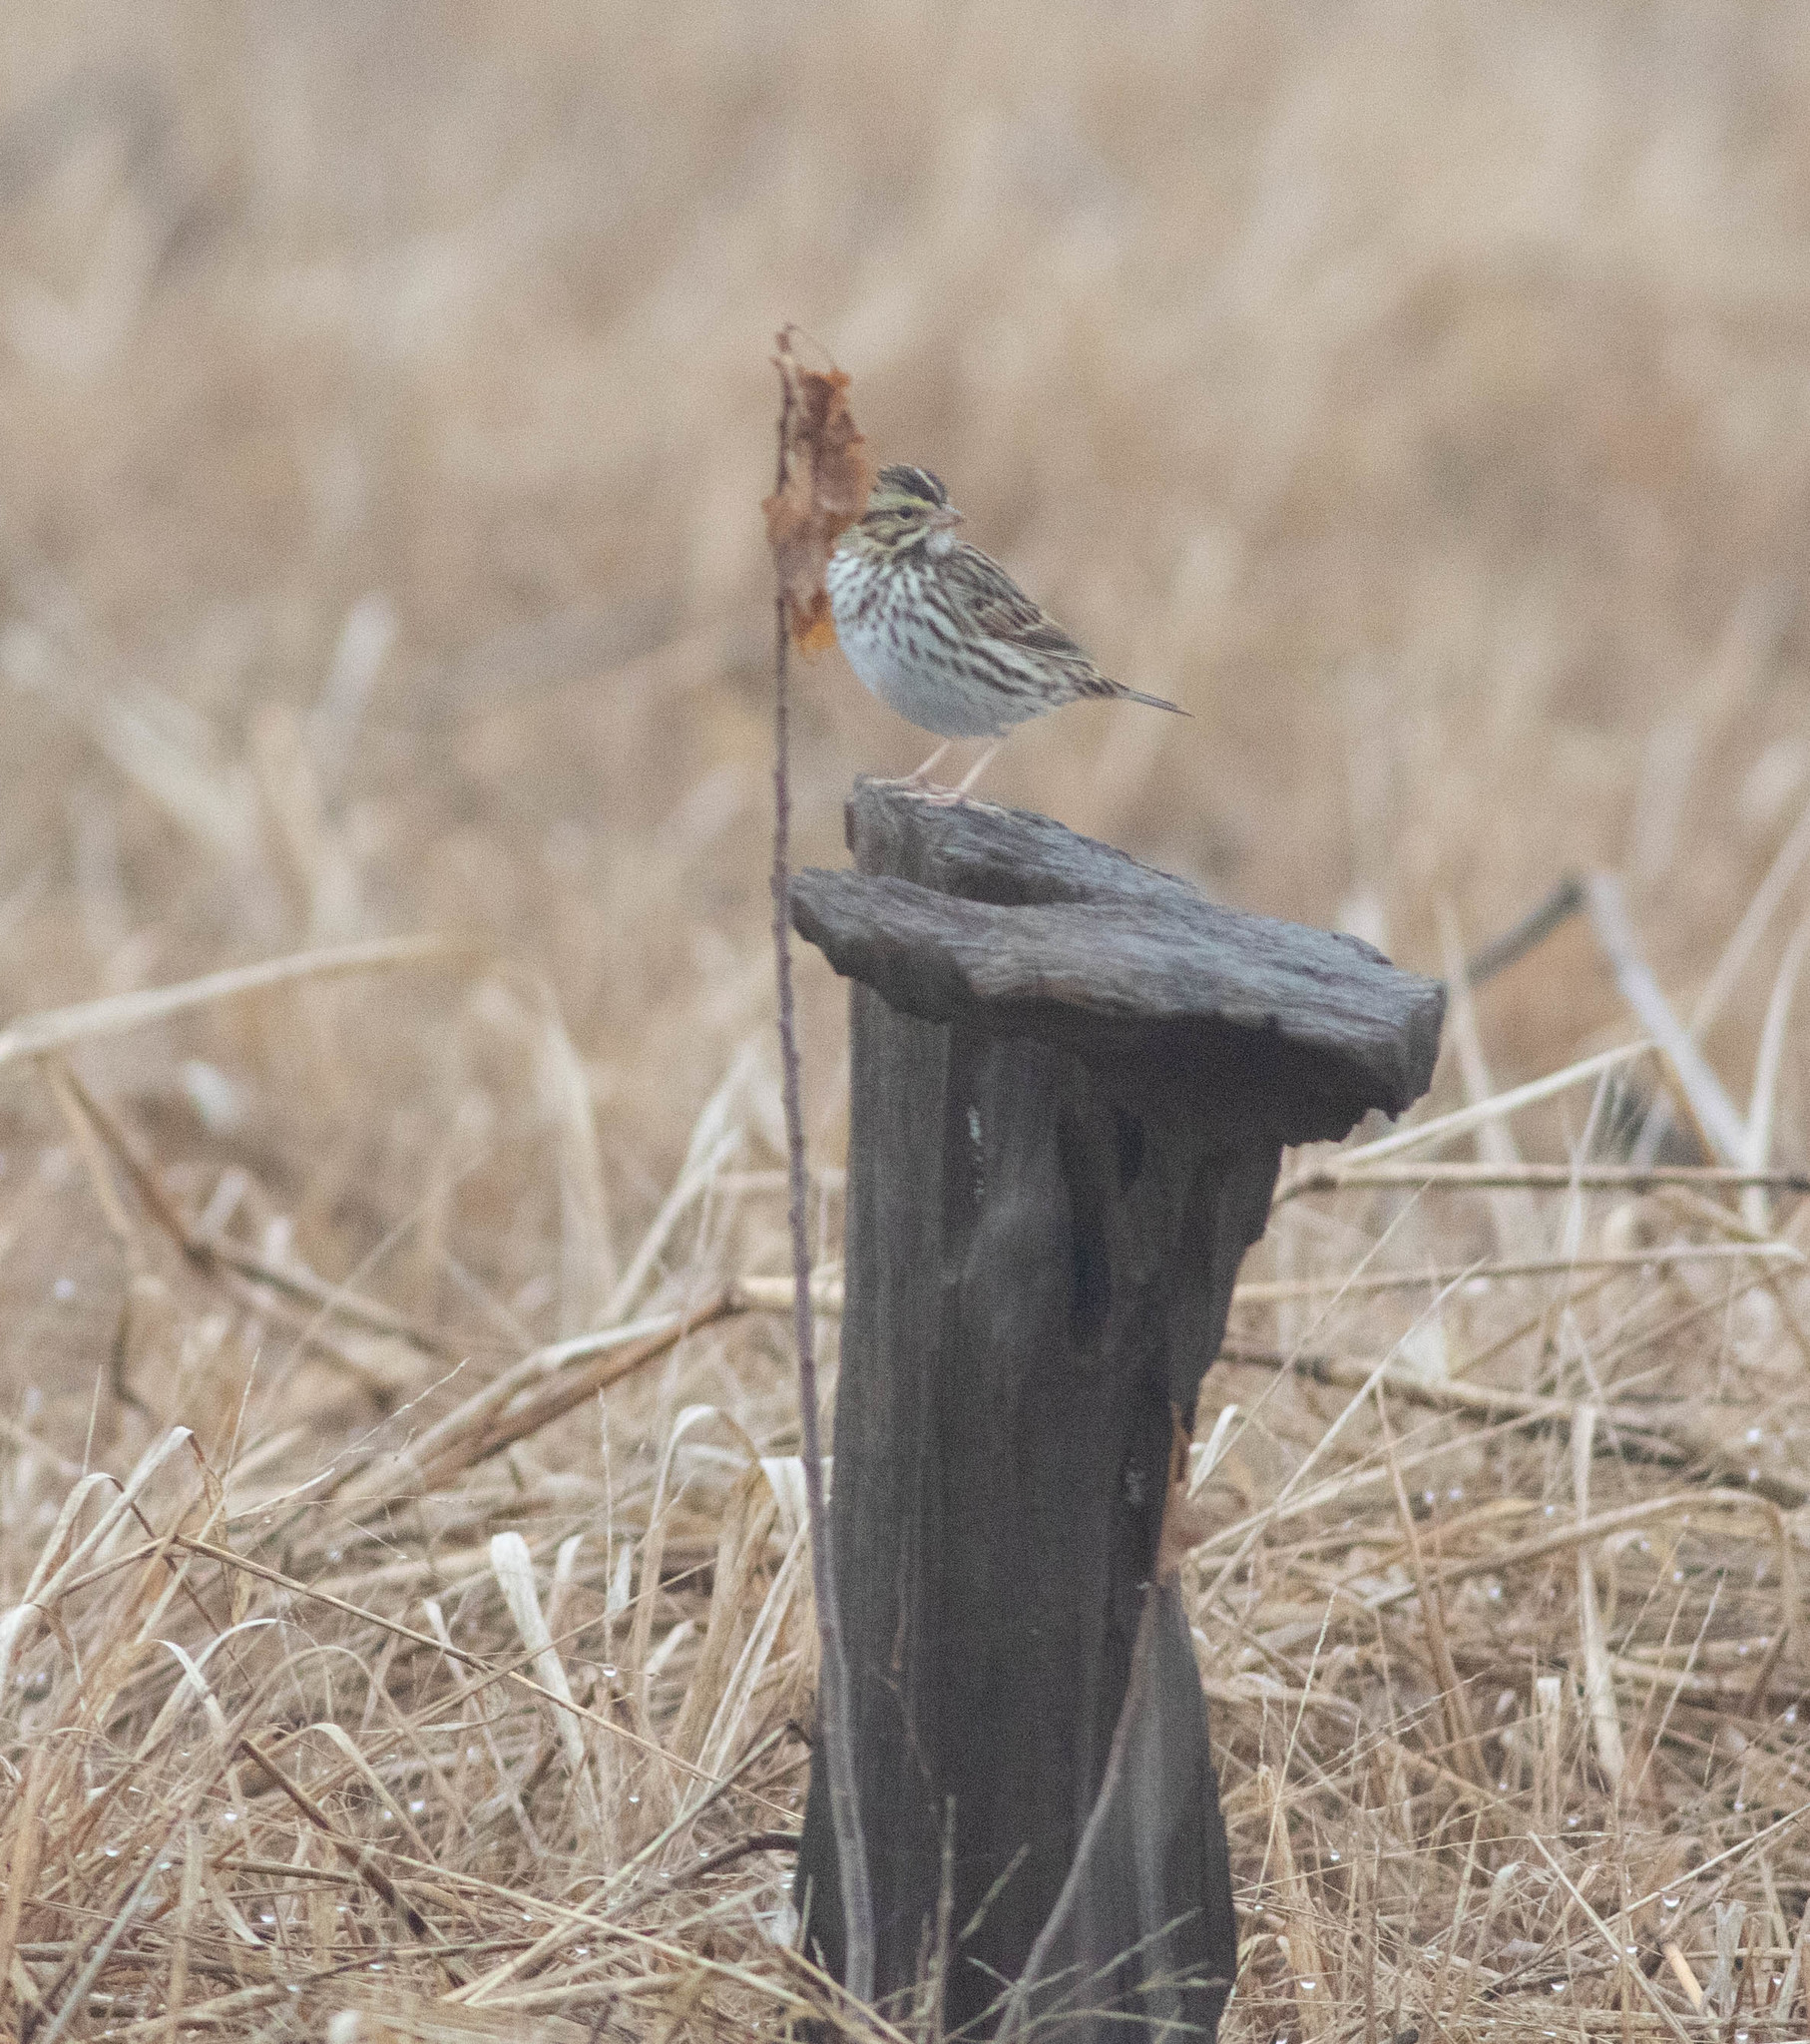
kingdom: Animalia
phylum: Chordata
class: Aves
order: Passeriformes
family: Passerellidae
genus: Passerculus
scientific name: Passerculus sandwichensis
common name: Savannah sparrow
